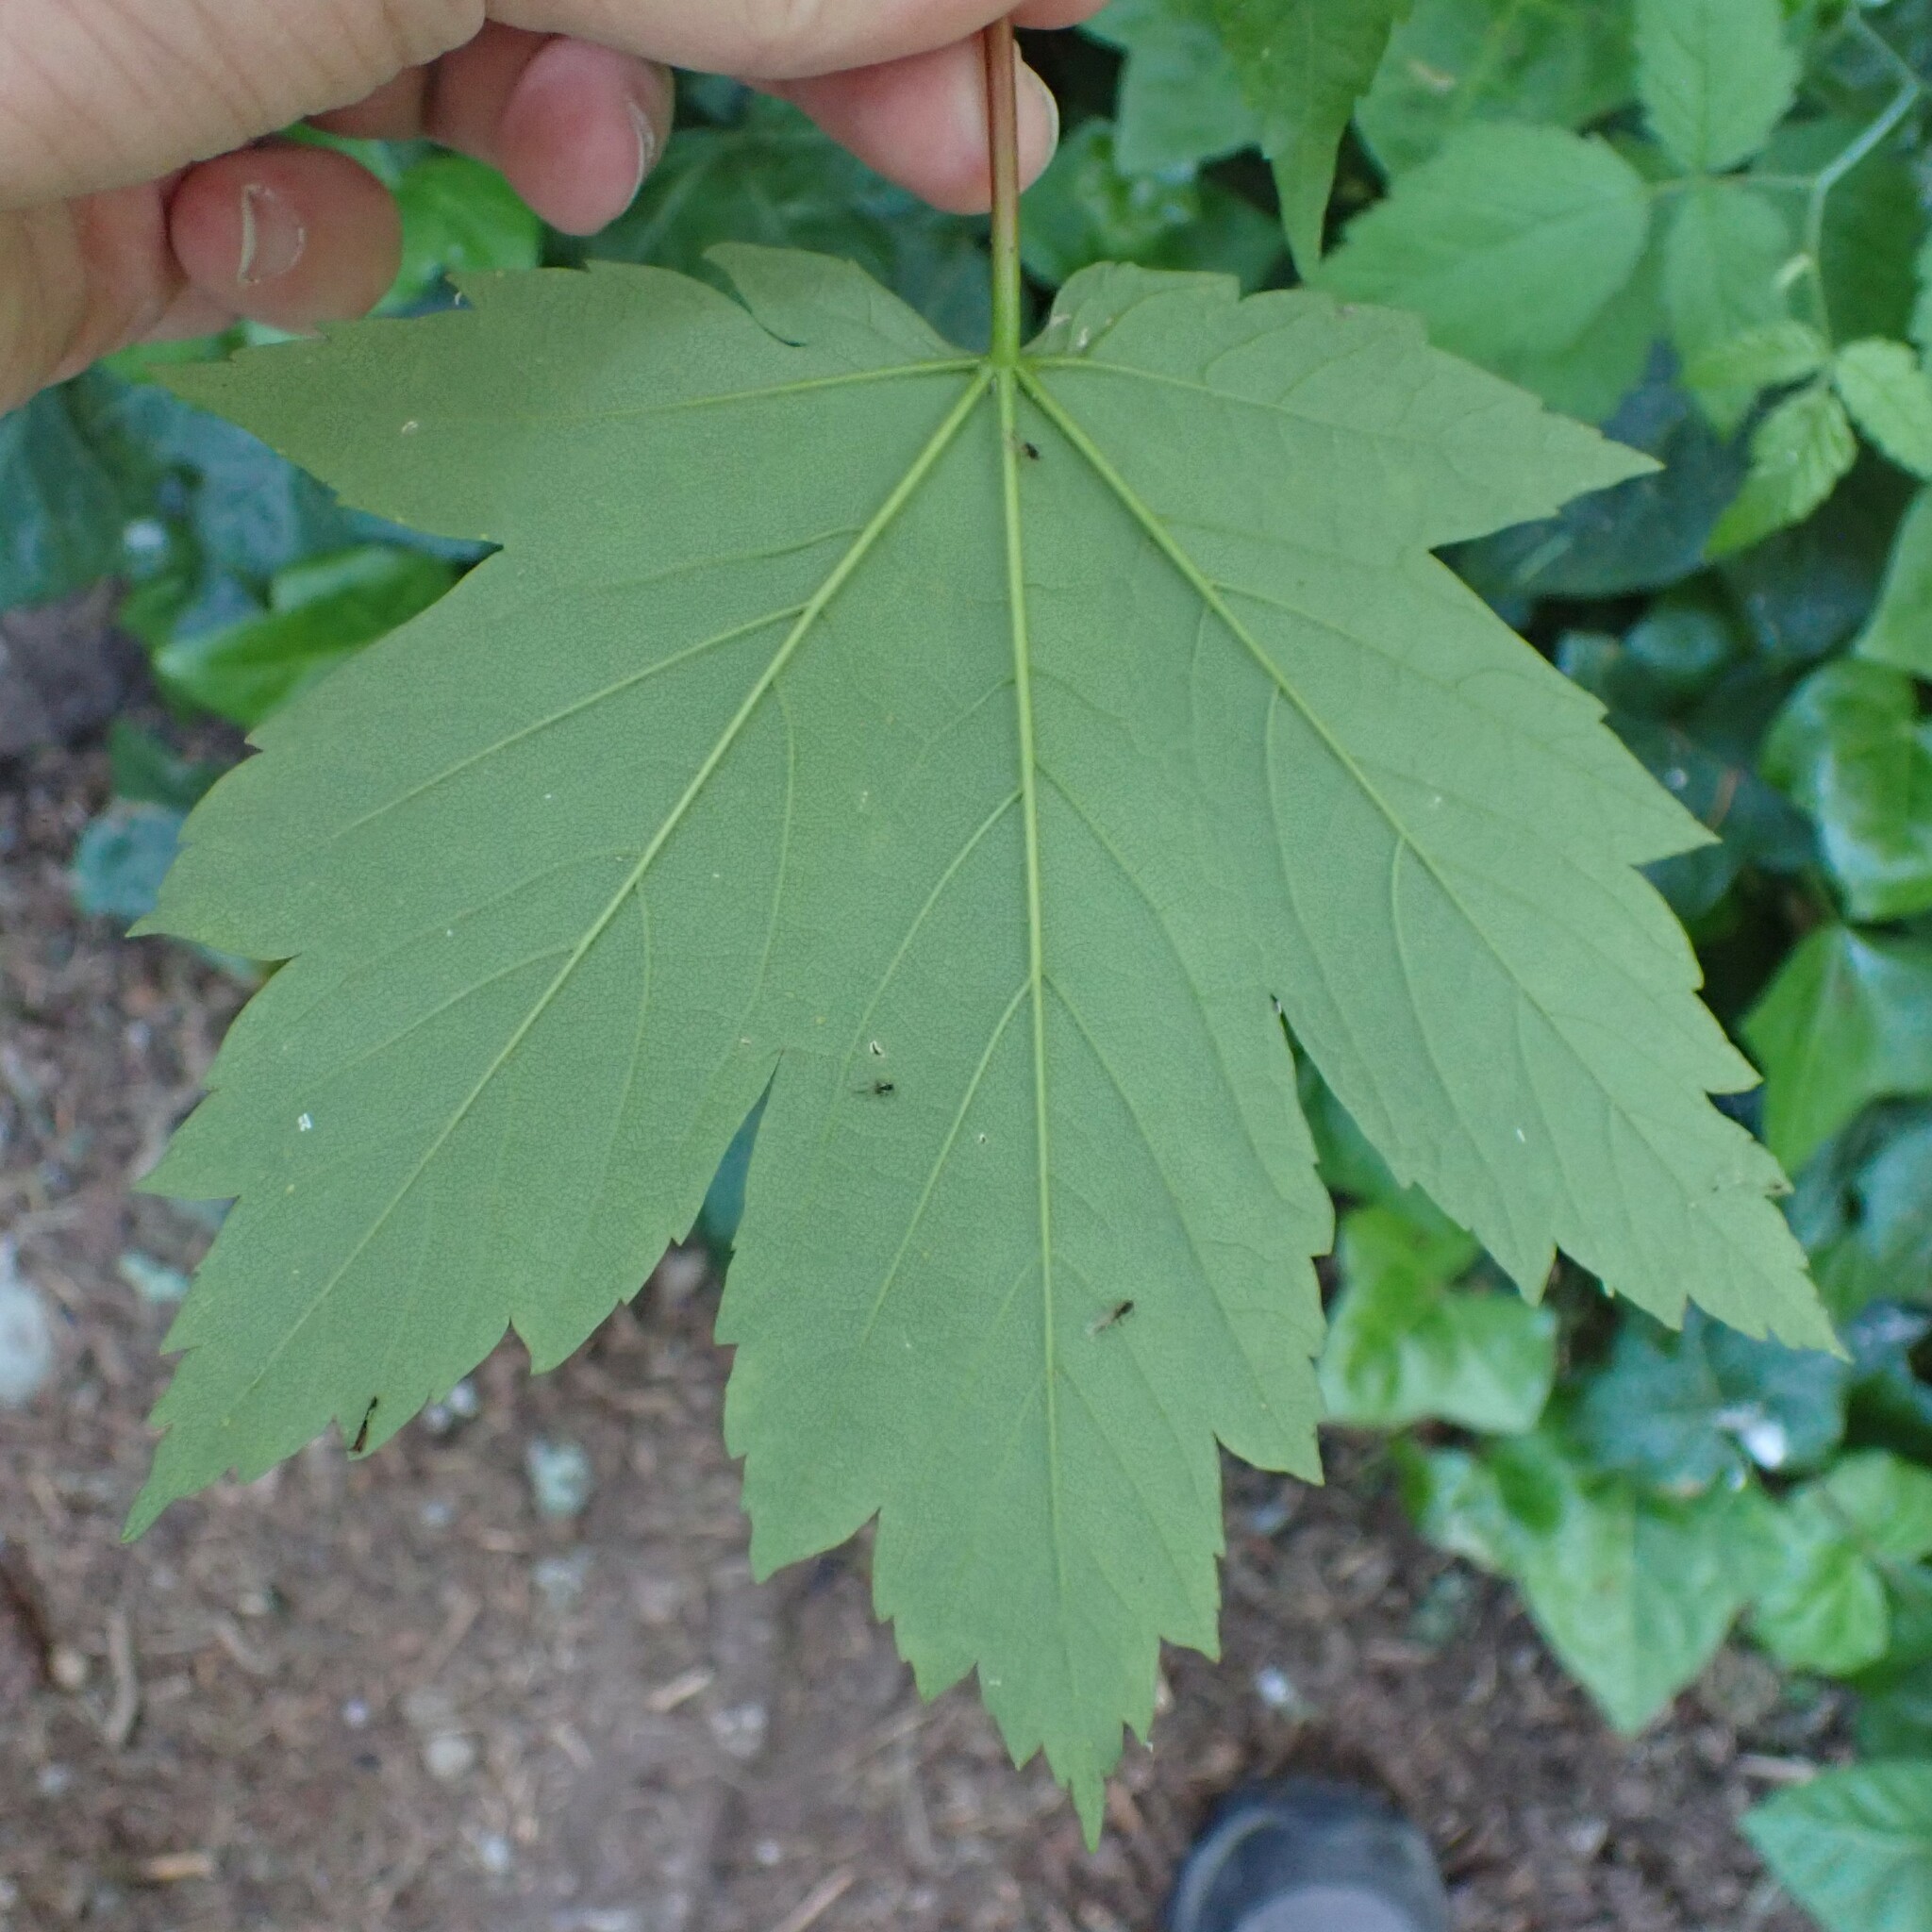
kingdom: Plantae
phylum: Tracheophyta
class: Magnoliopsida
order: Sapindales
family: Sapindaceae
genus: Acer
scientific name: Acer pseudoplatanus
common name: Sycamore
